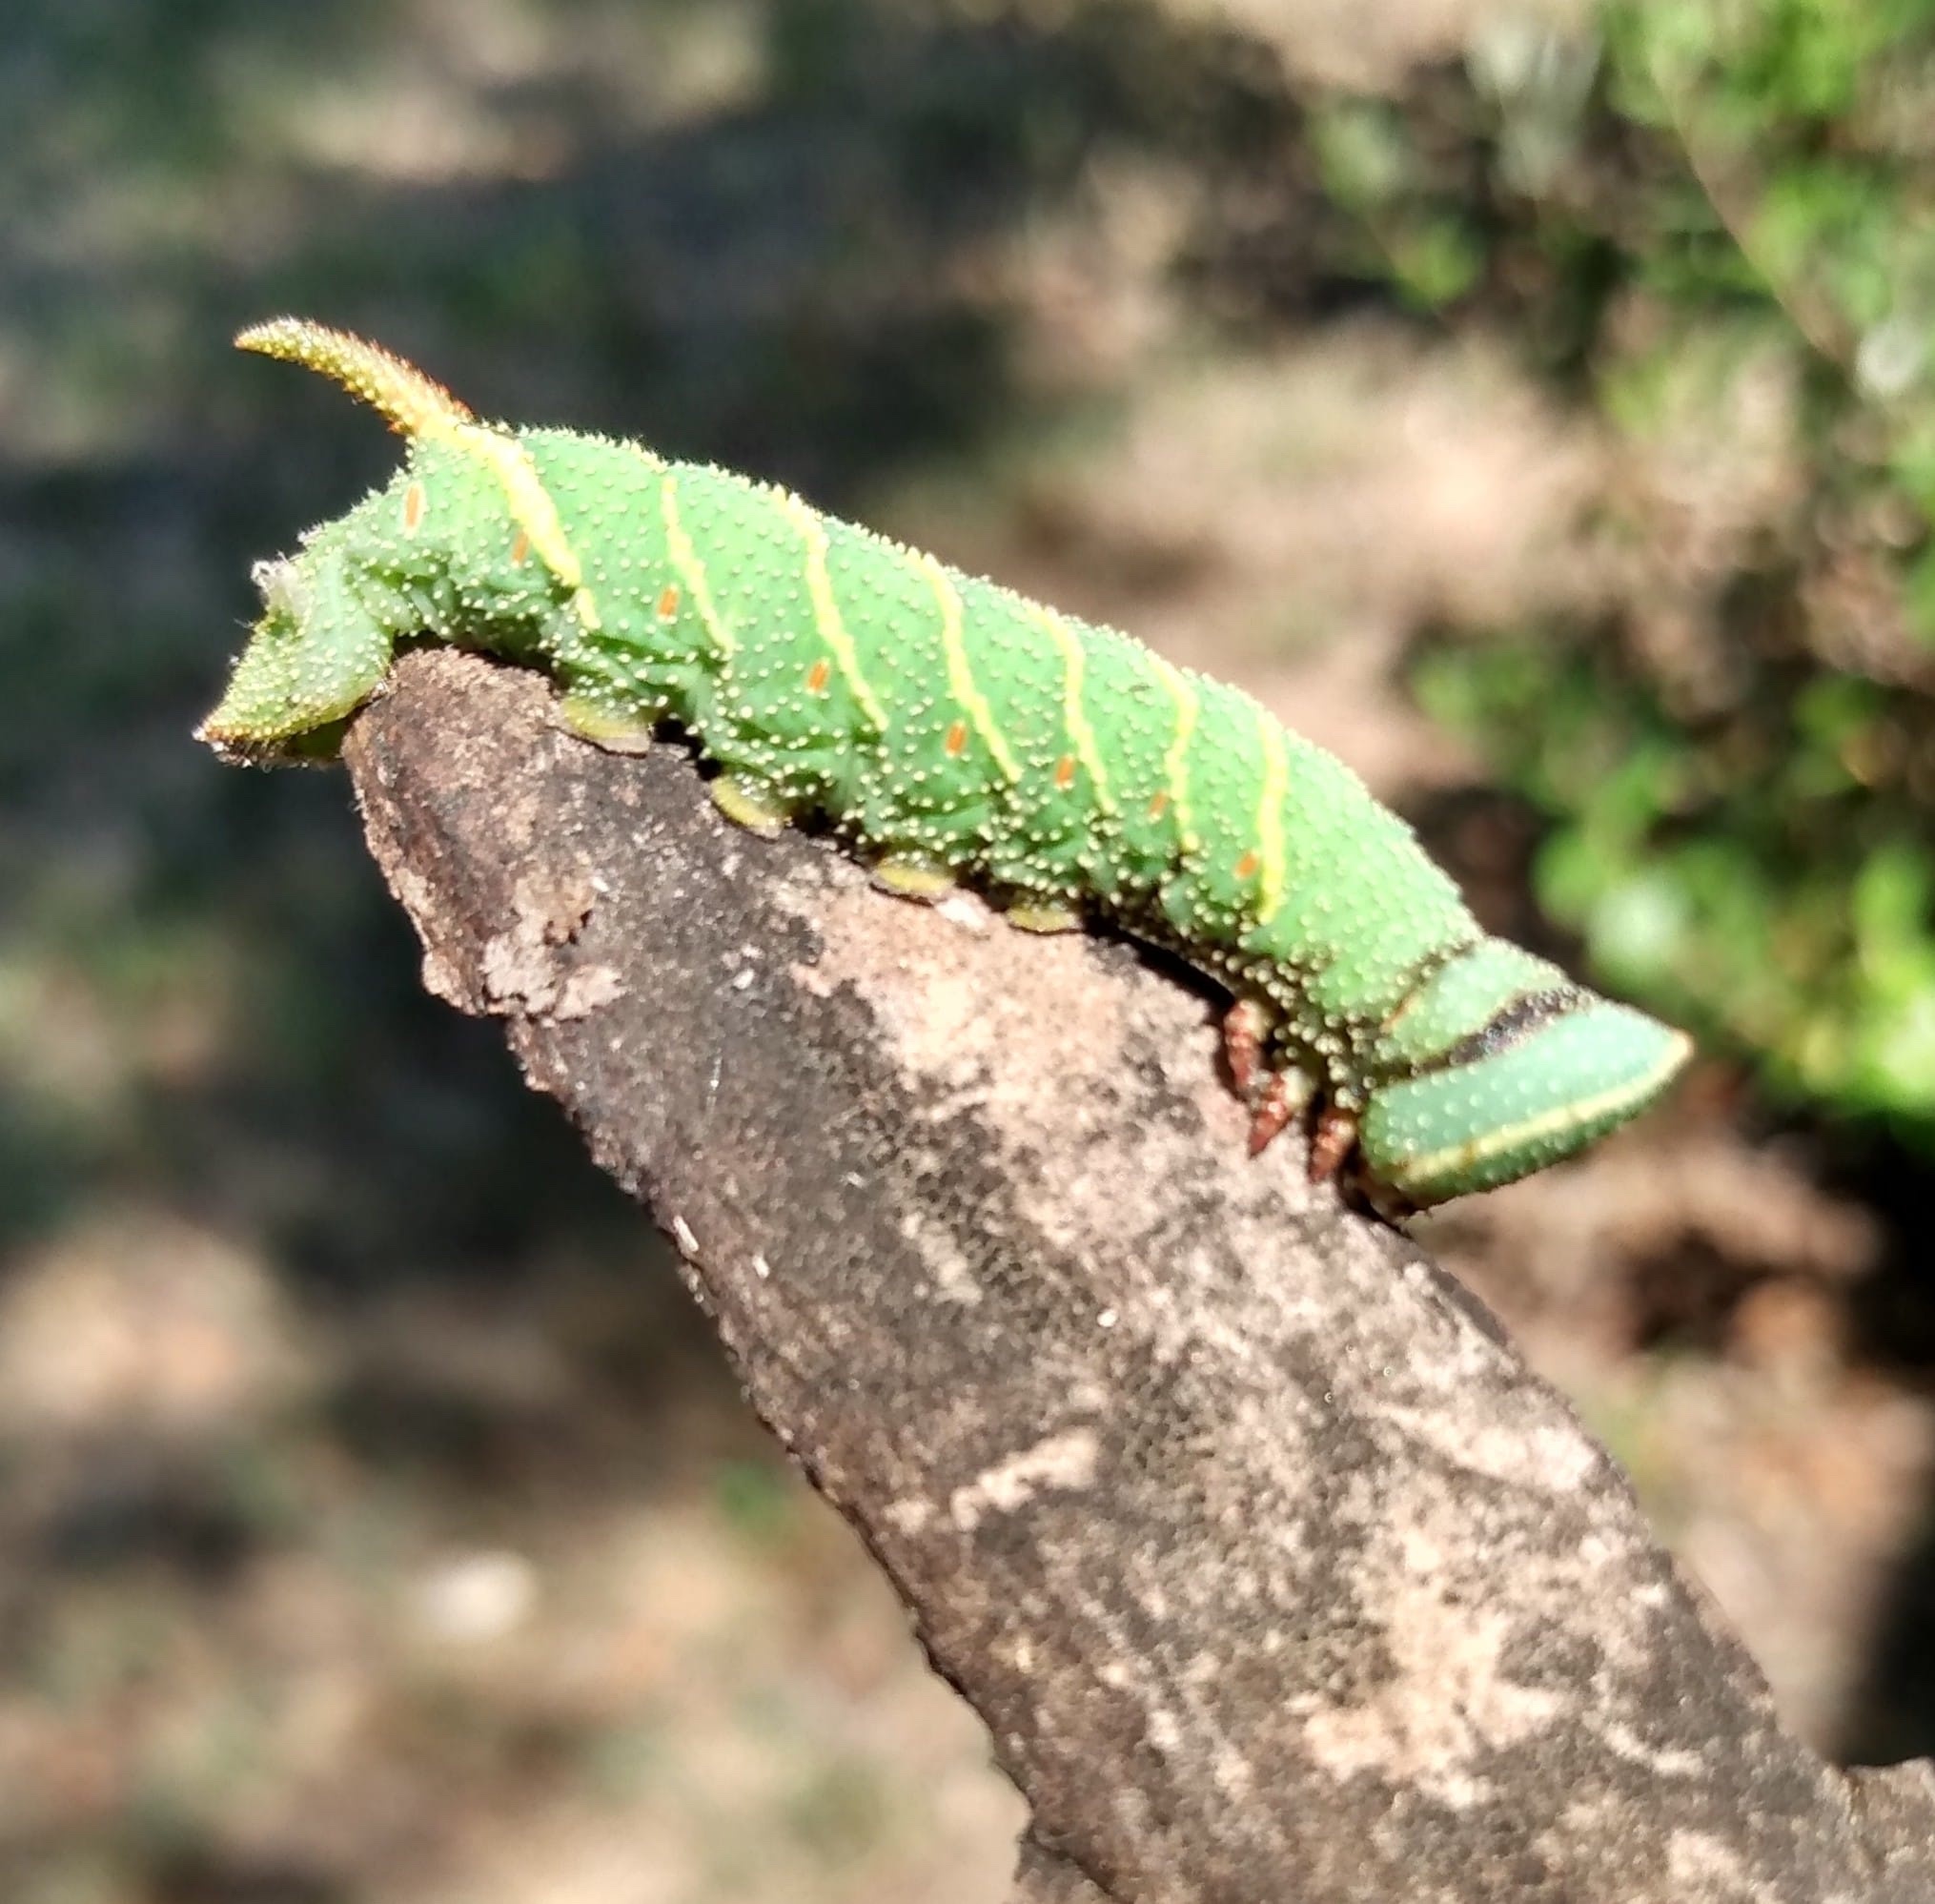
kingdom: Animalia
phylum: Arthropoda
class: Insecta
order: Lepidoptera
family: Sphingidae
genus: Amorpha
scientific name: Amorpha juglandis
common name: Walnut sphinx
